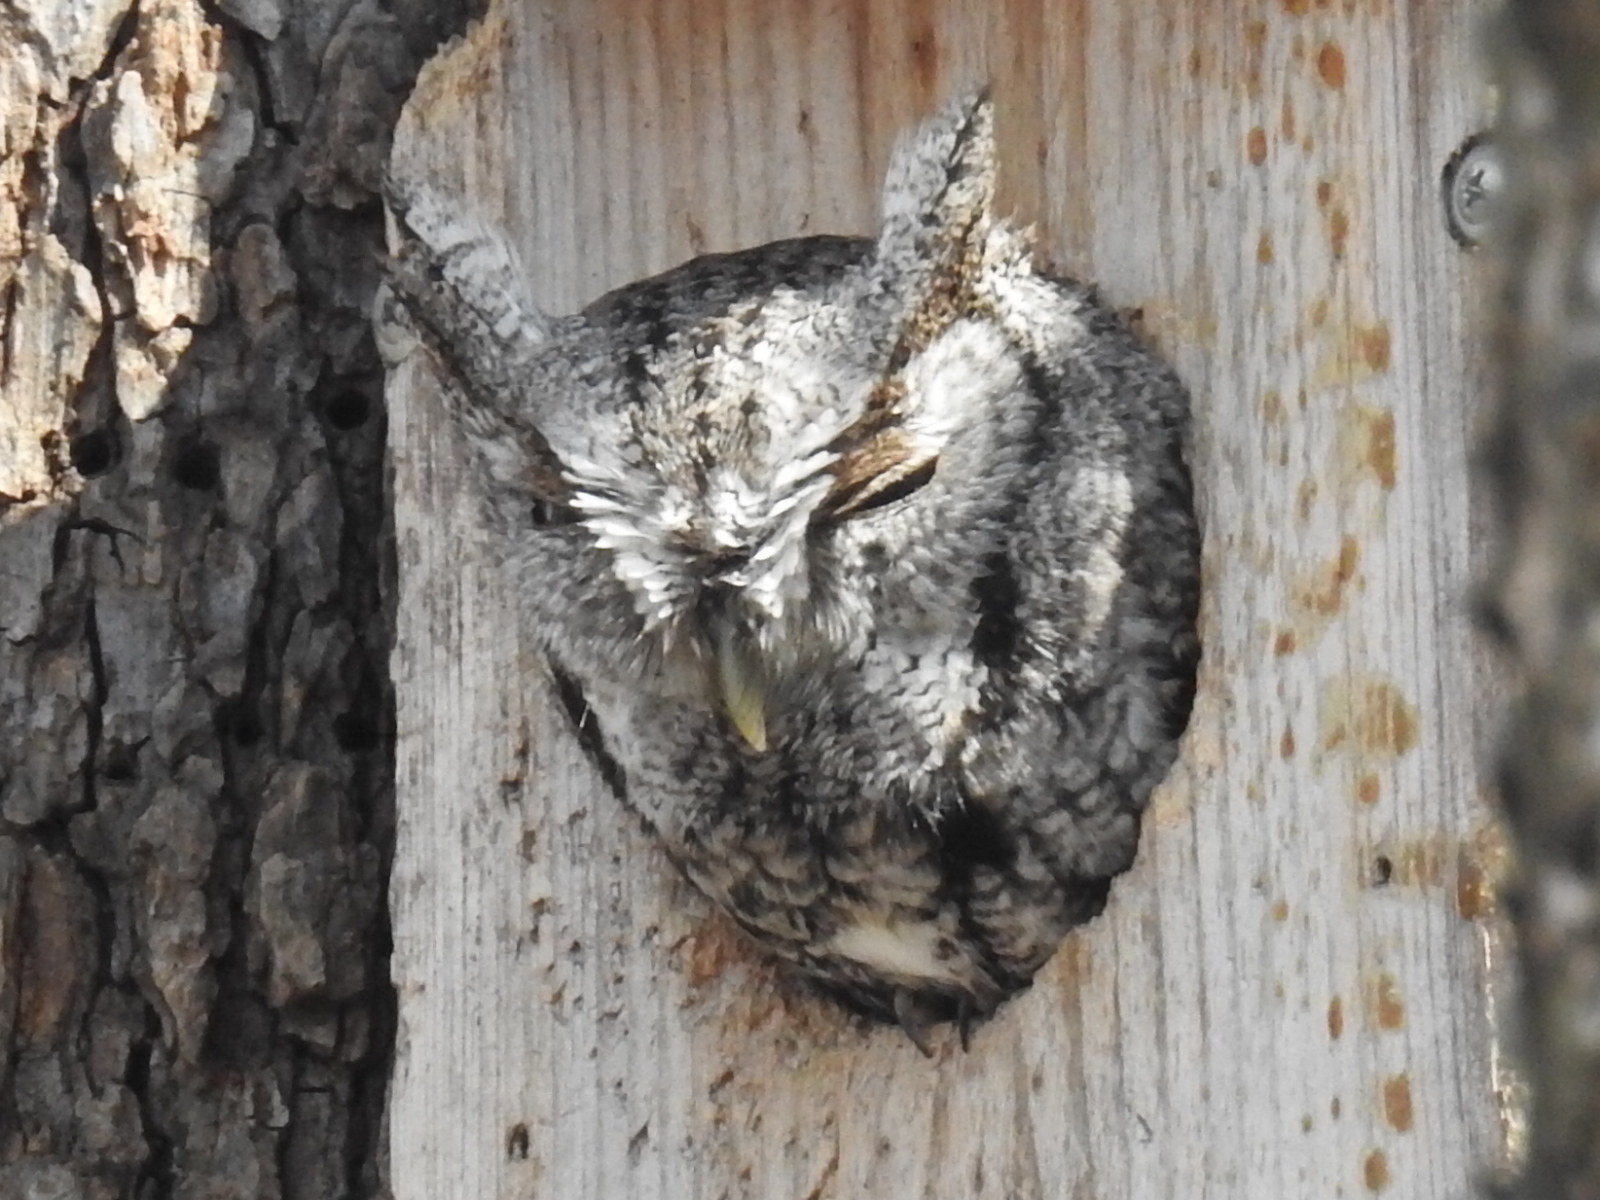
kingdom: Animalia
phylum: Chordata
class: Aves
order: Strigiformes
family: Strigidae
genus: Megascops
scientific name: Megascops asio
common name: Eastern screech-owl
